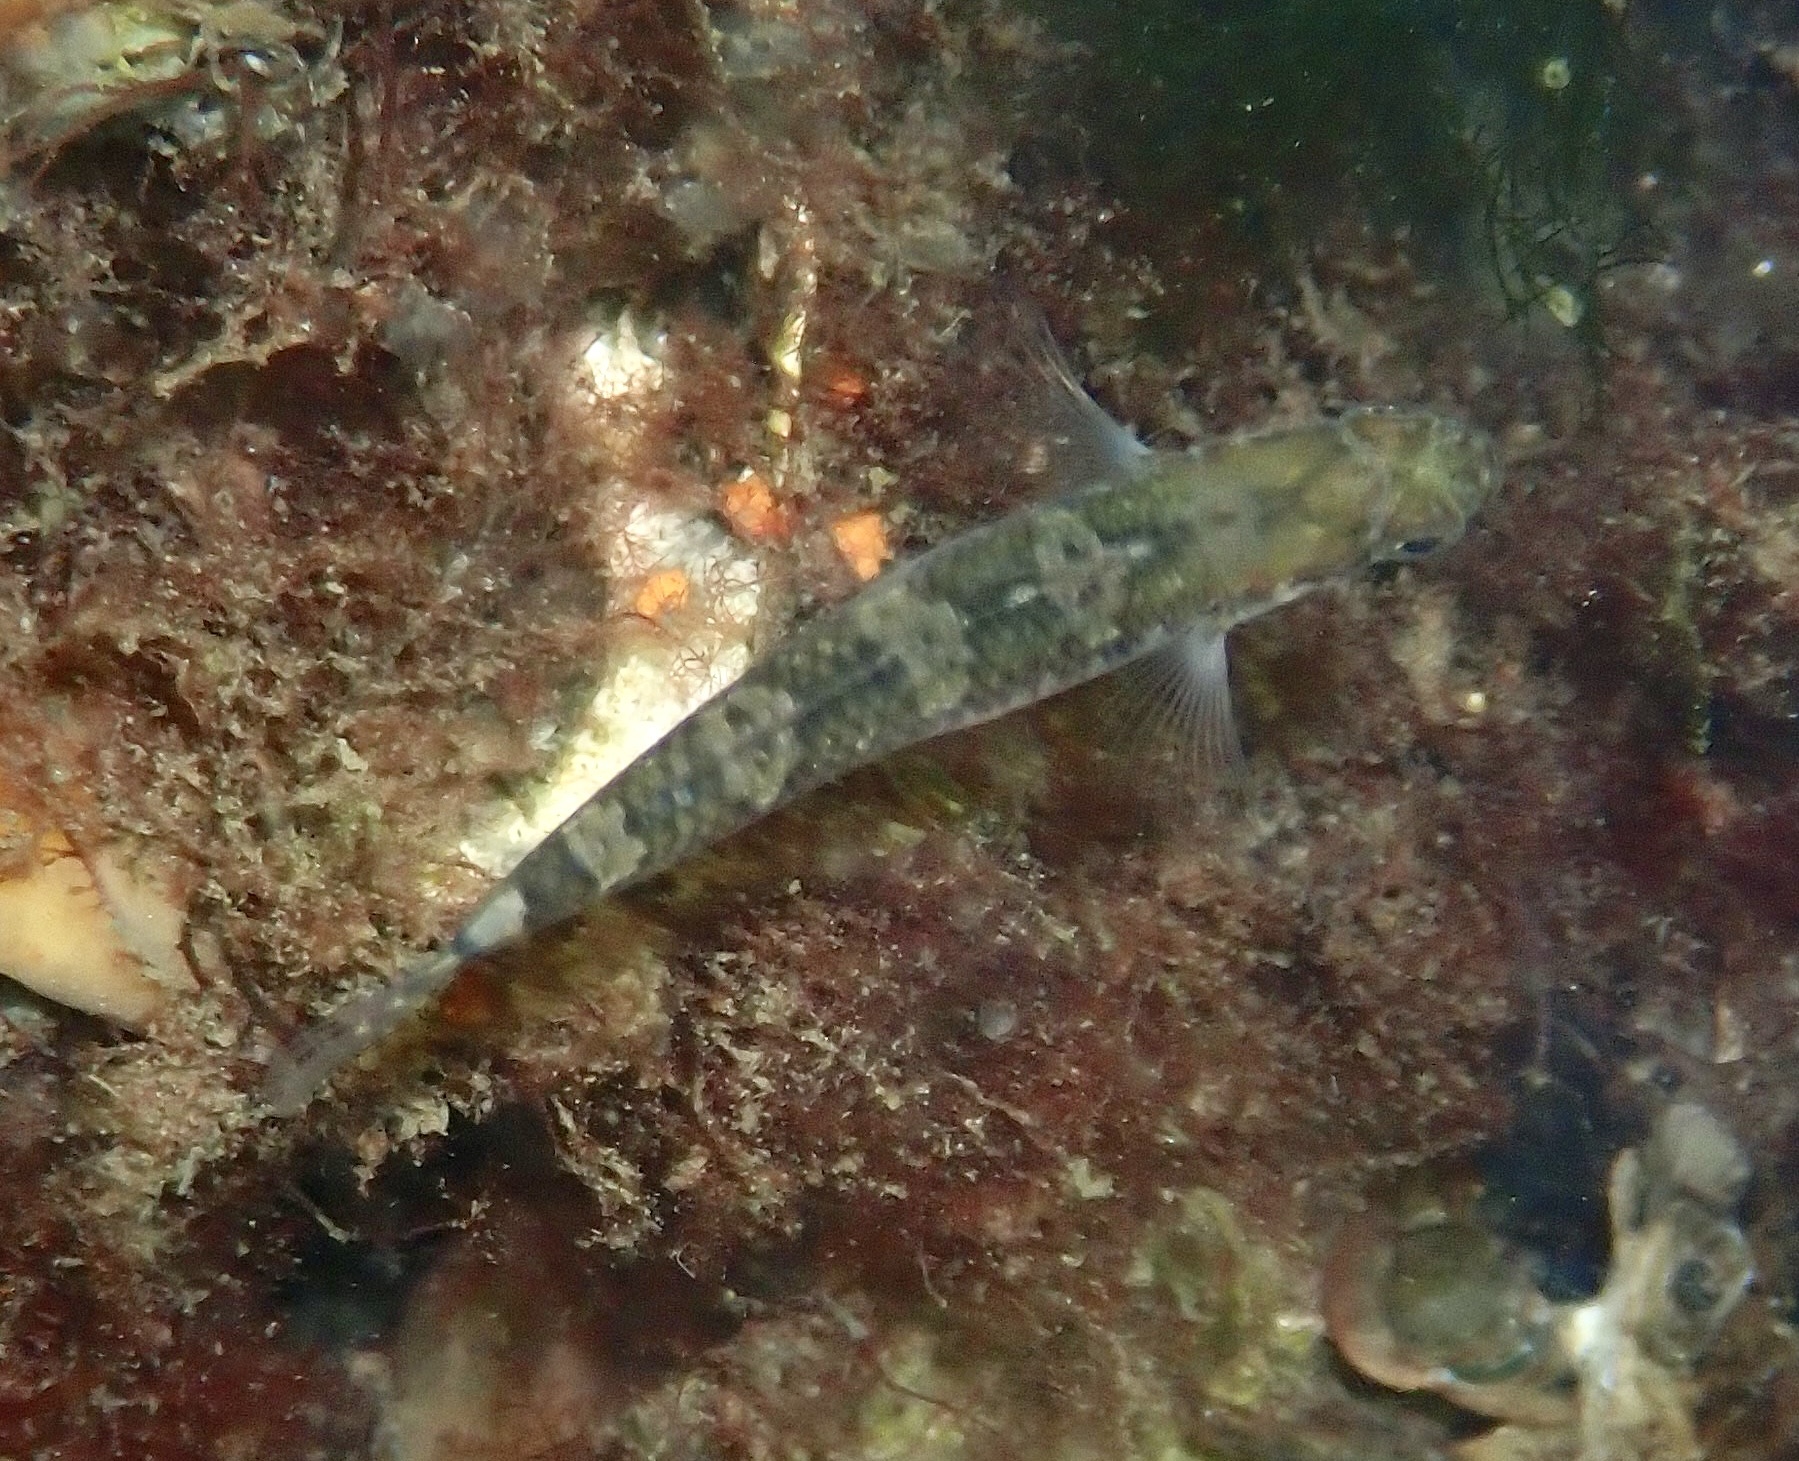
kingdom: Animalia
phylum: Chordata
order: Perciformes
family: Gobiidae
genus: Gobiusculus
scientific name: Gobiusculus flavescens
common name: Two-spotted goby
